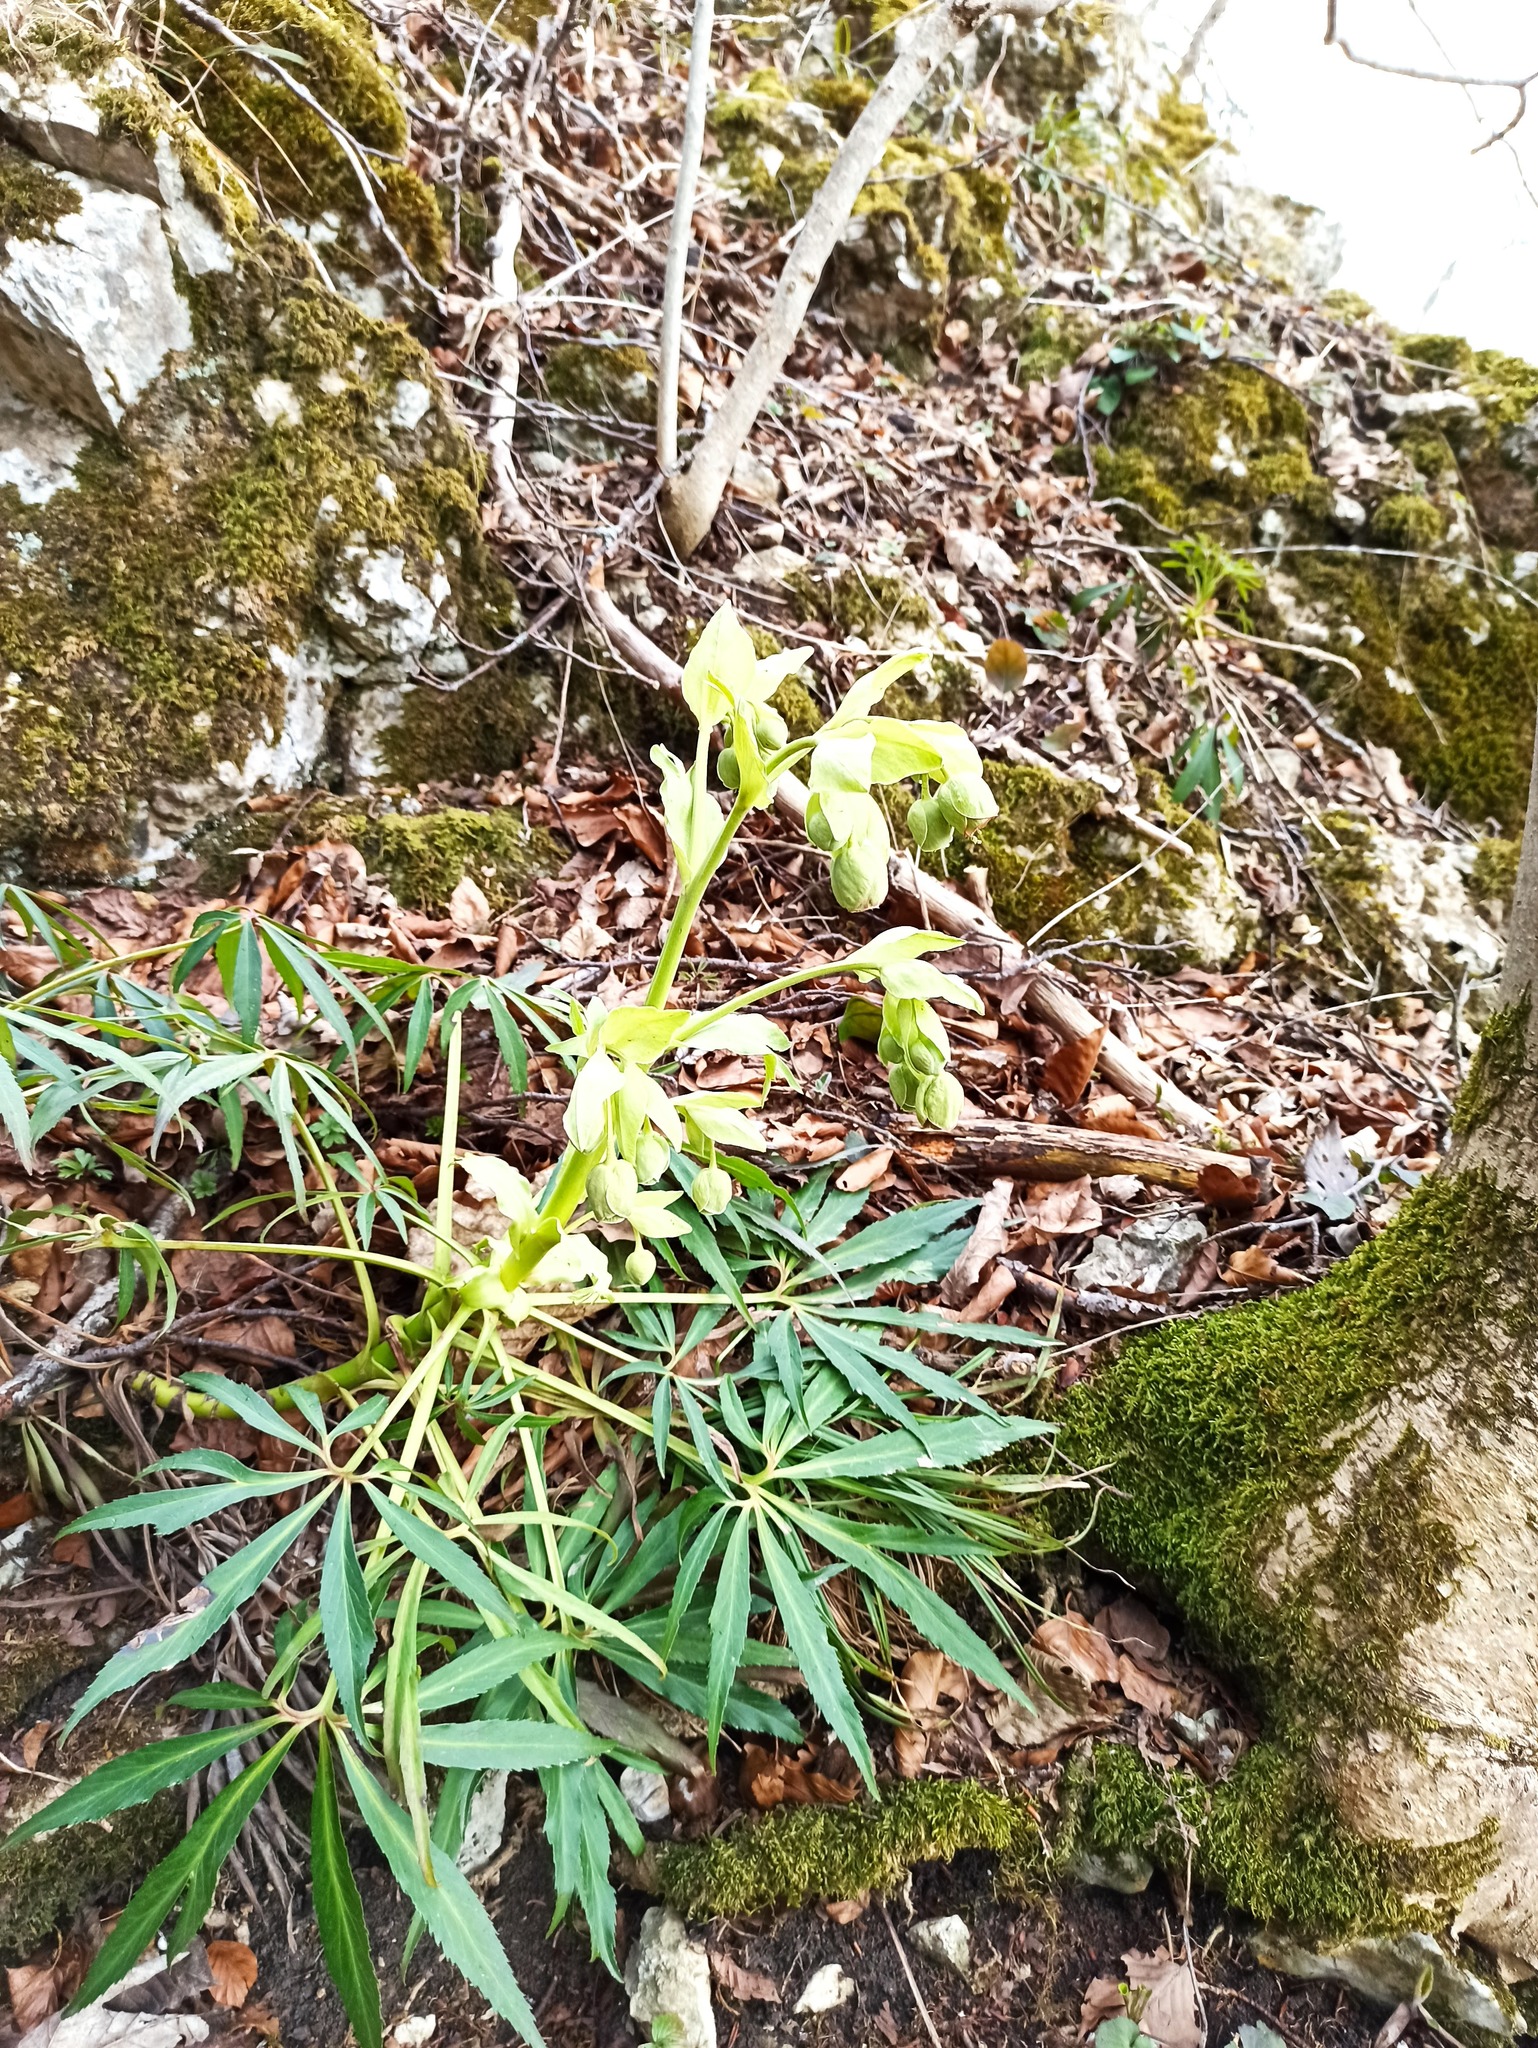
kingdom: Plantae
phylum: Tracheophyta
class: Magnoliopsida
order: Ranunculales
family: Ranunculaceae
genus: Helleborus
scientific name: Helleborus foetidus
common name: Stinking hellebore
